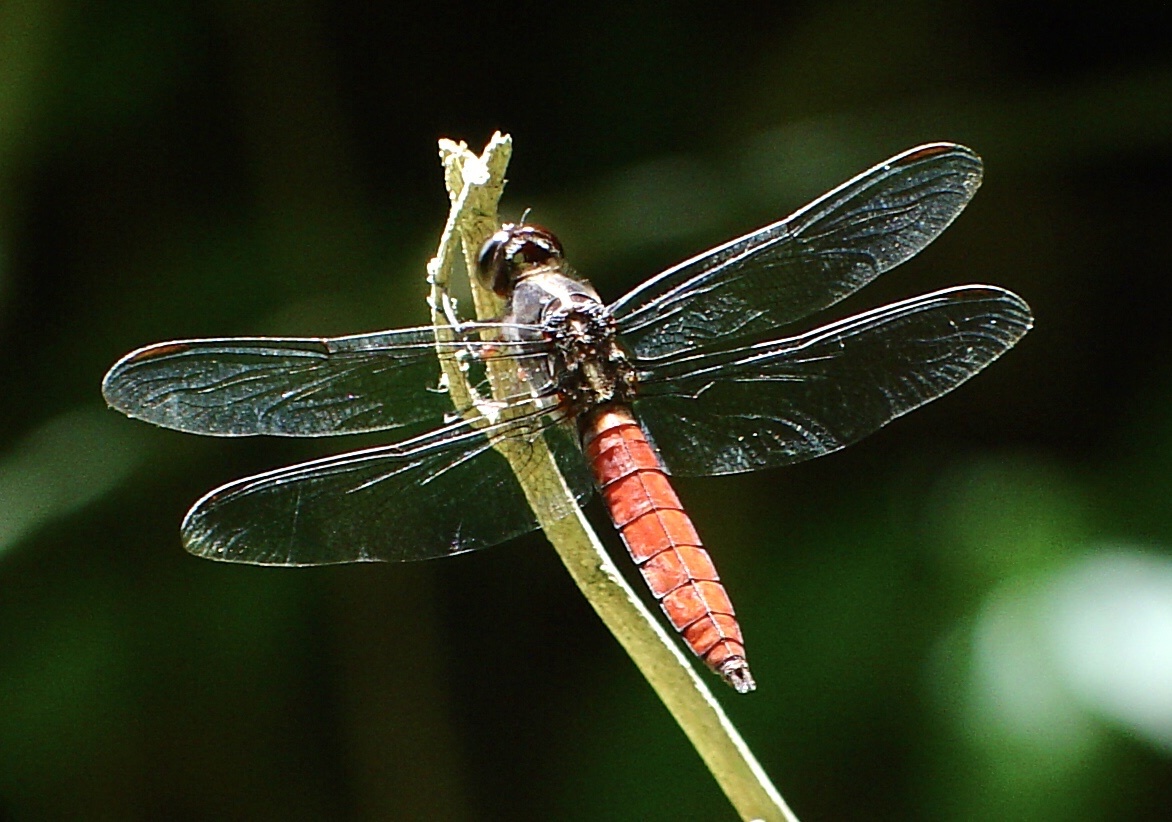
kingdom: Animalia
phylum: Arthropoda
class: Insecta
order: Odonata
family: Libellulidae
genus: Libellula
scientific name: Libellula herculea
